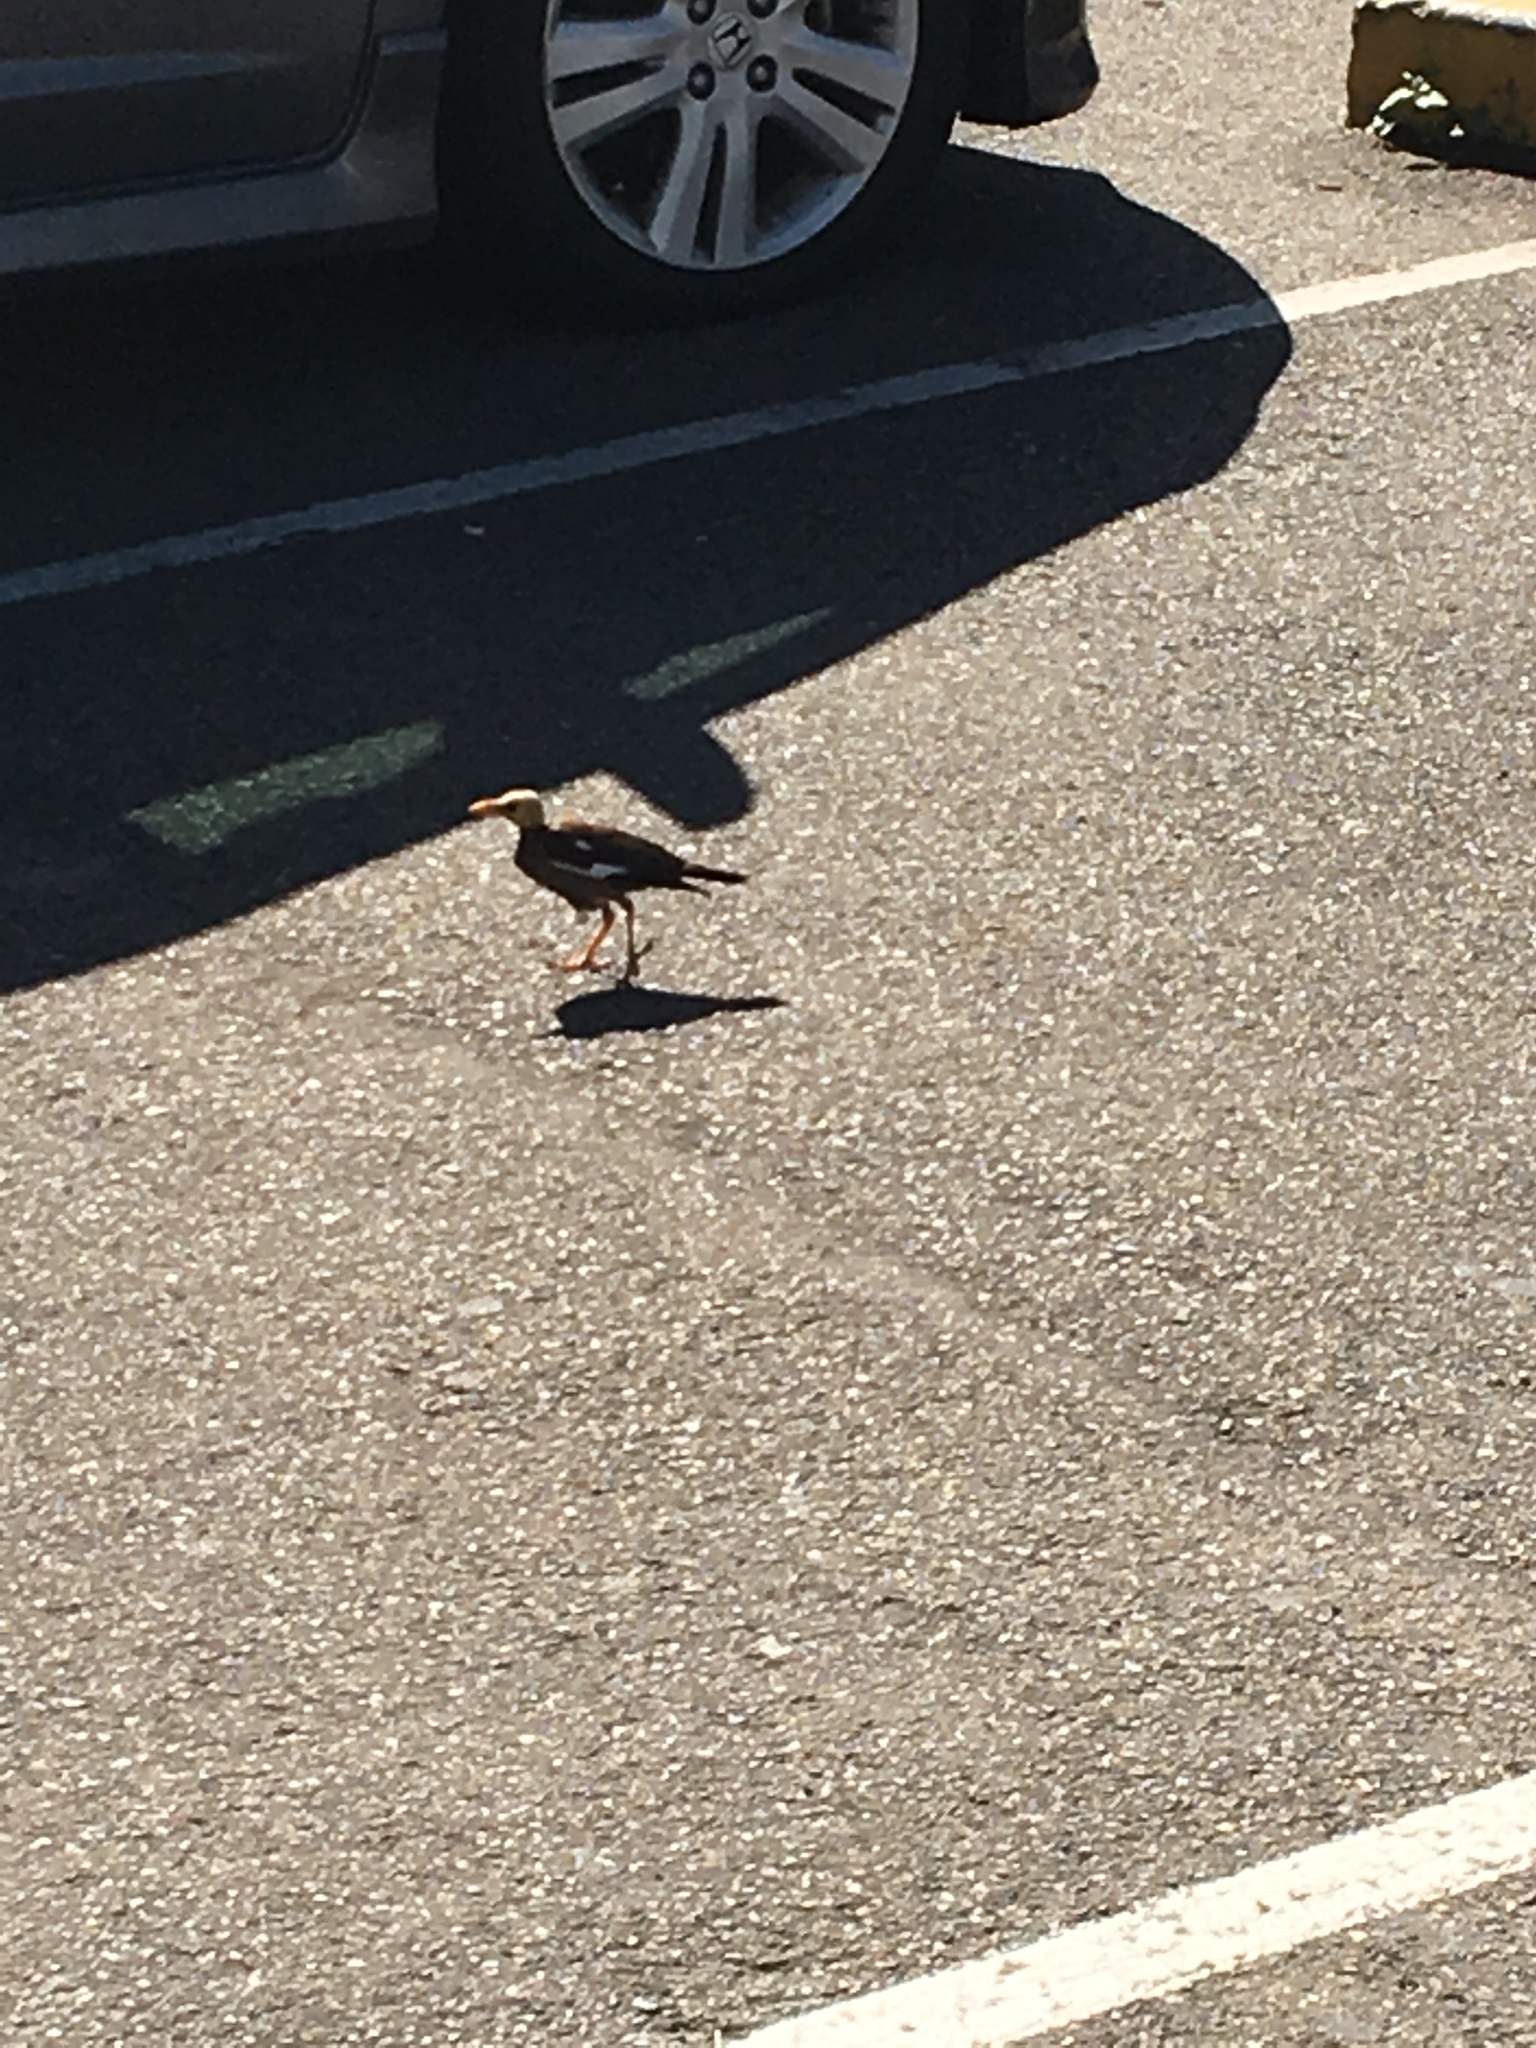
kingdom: Animalia
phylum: Chordata
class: Aves
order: Passeriformes
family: Sturnidae
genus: Acridotheres
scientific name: Acridotheres tristis
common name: Common myna
